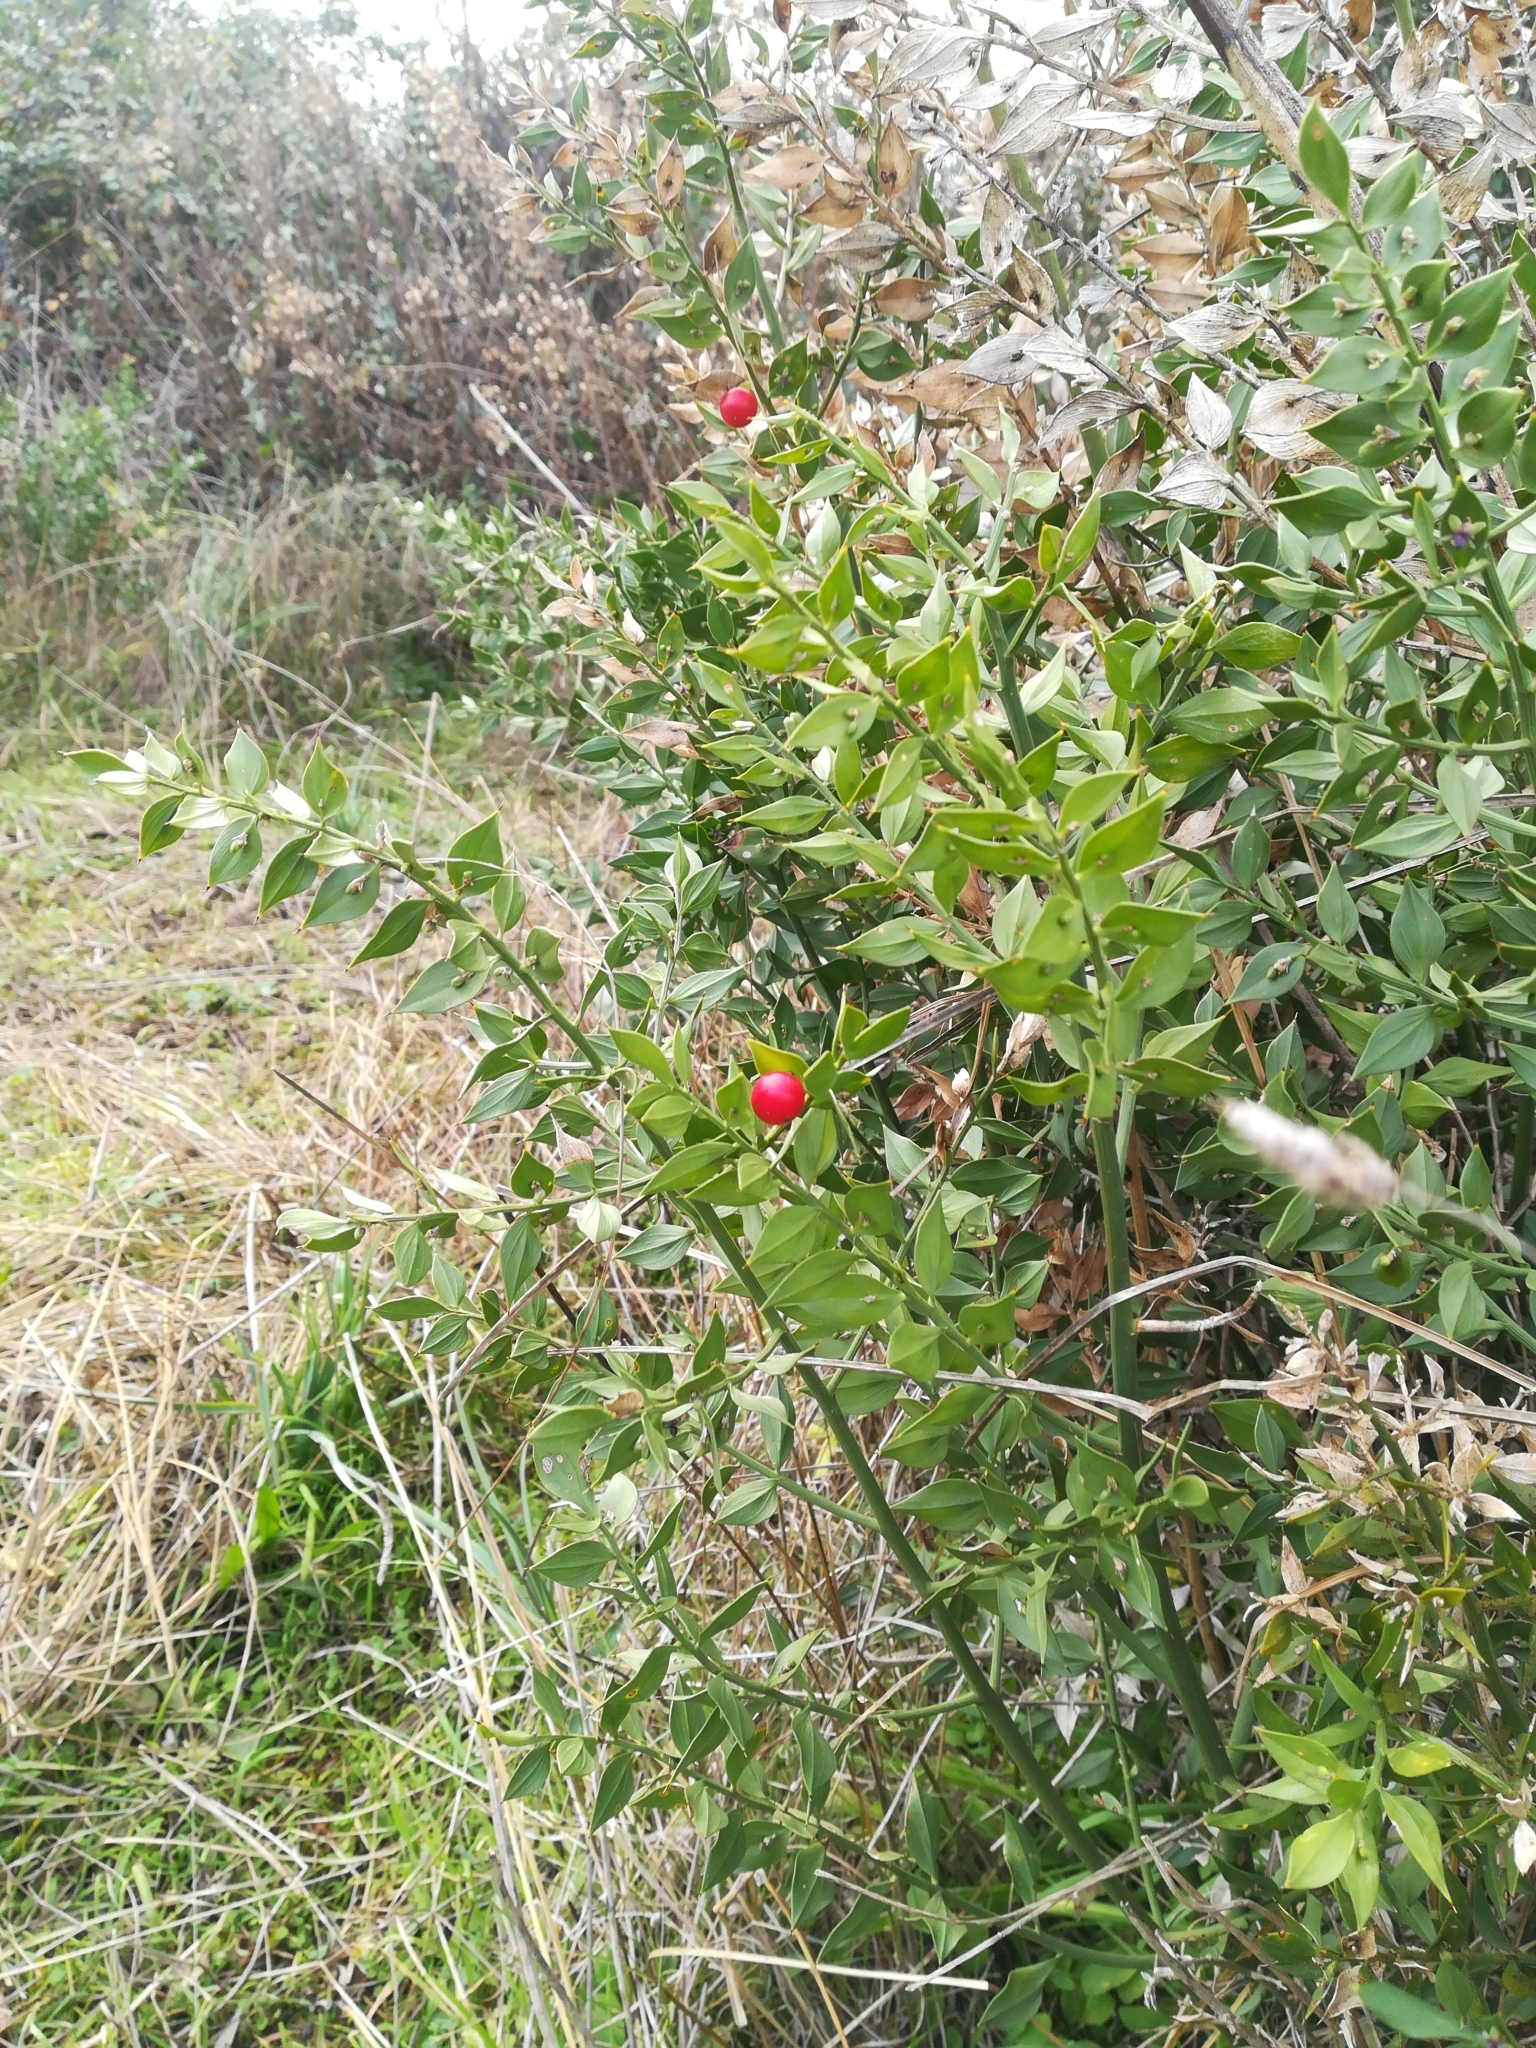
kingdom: Plantae
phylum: Tracheophyta
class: Liliopsida
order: Asparagales
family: Asparagaceae
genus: Ruscus
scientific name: Ruscus aculeatus
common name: Butcher's-broom
